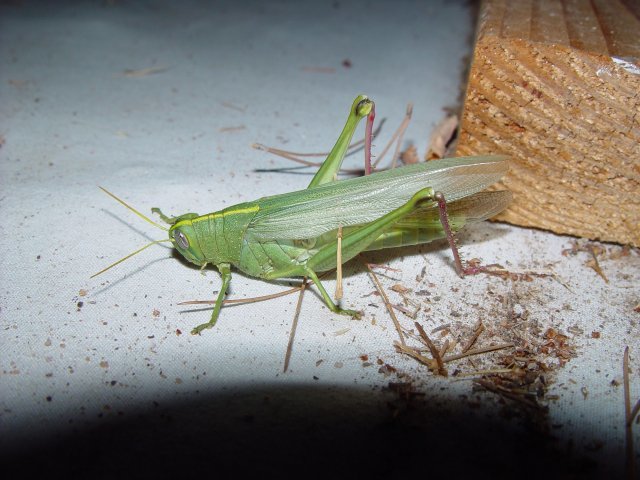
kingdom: Animalia
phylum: Arthropoda
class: Insecta
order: Orthoptera
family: Acrididae
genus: Schistocerca
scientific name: Schistocerca shoshone
